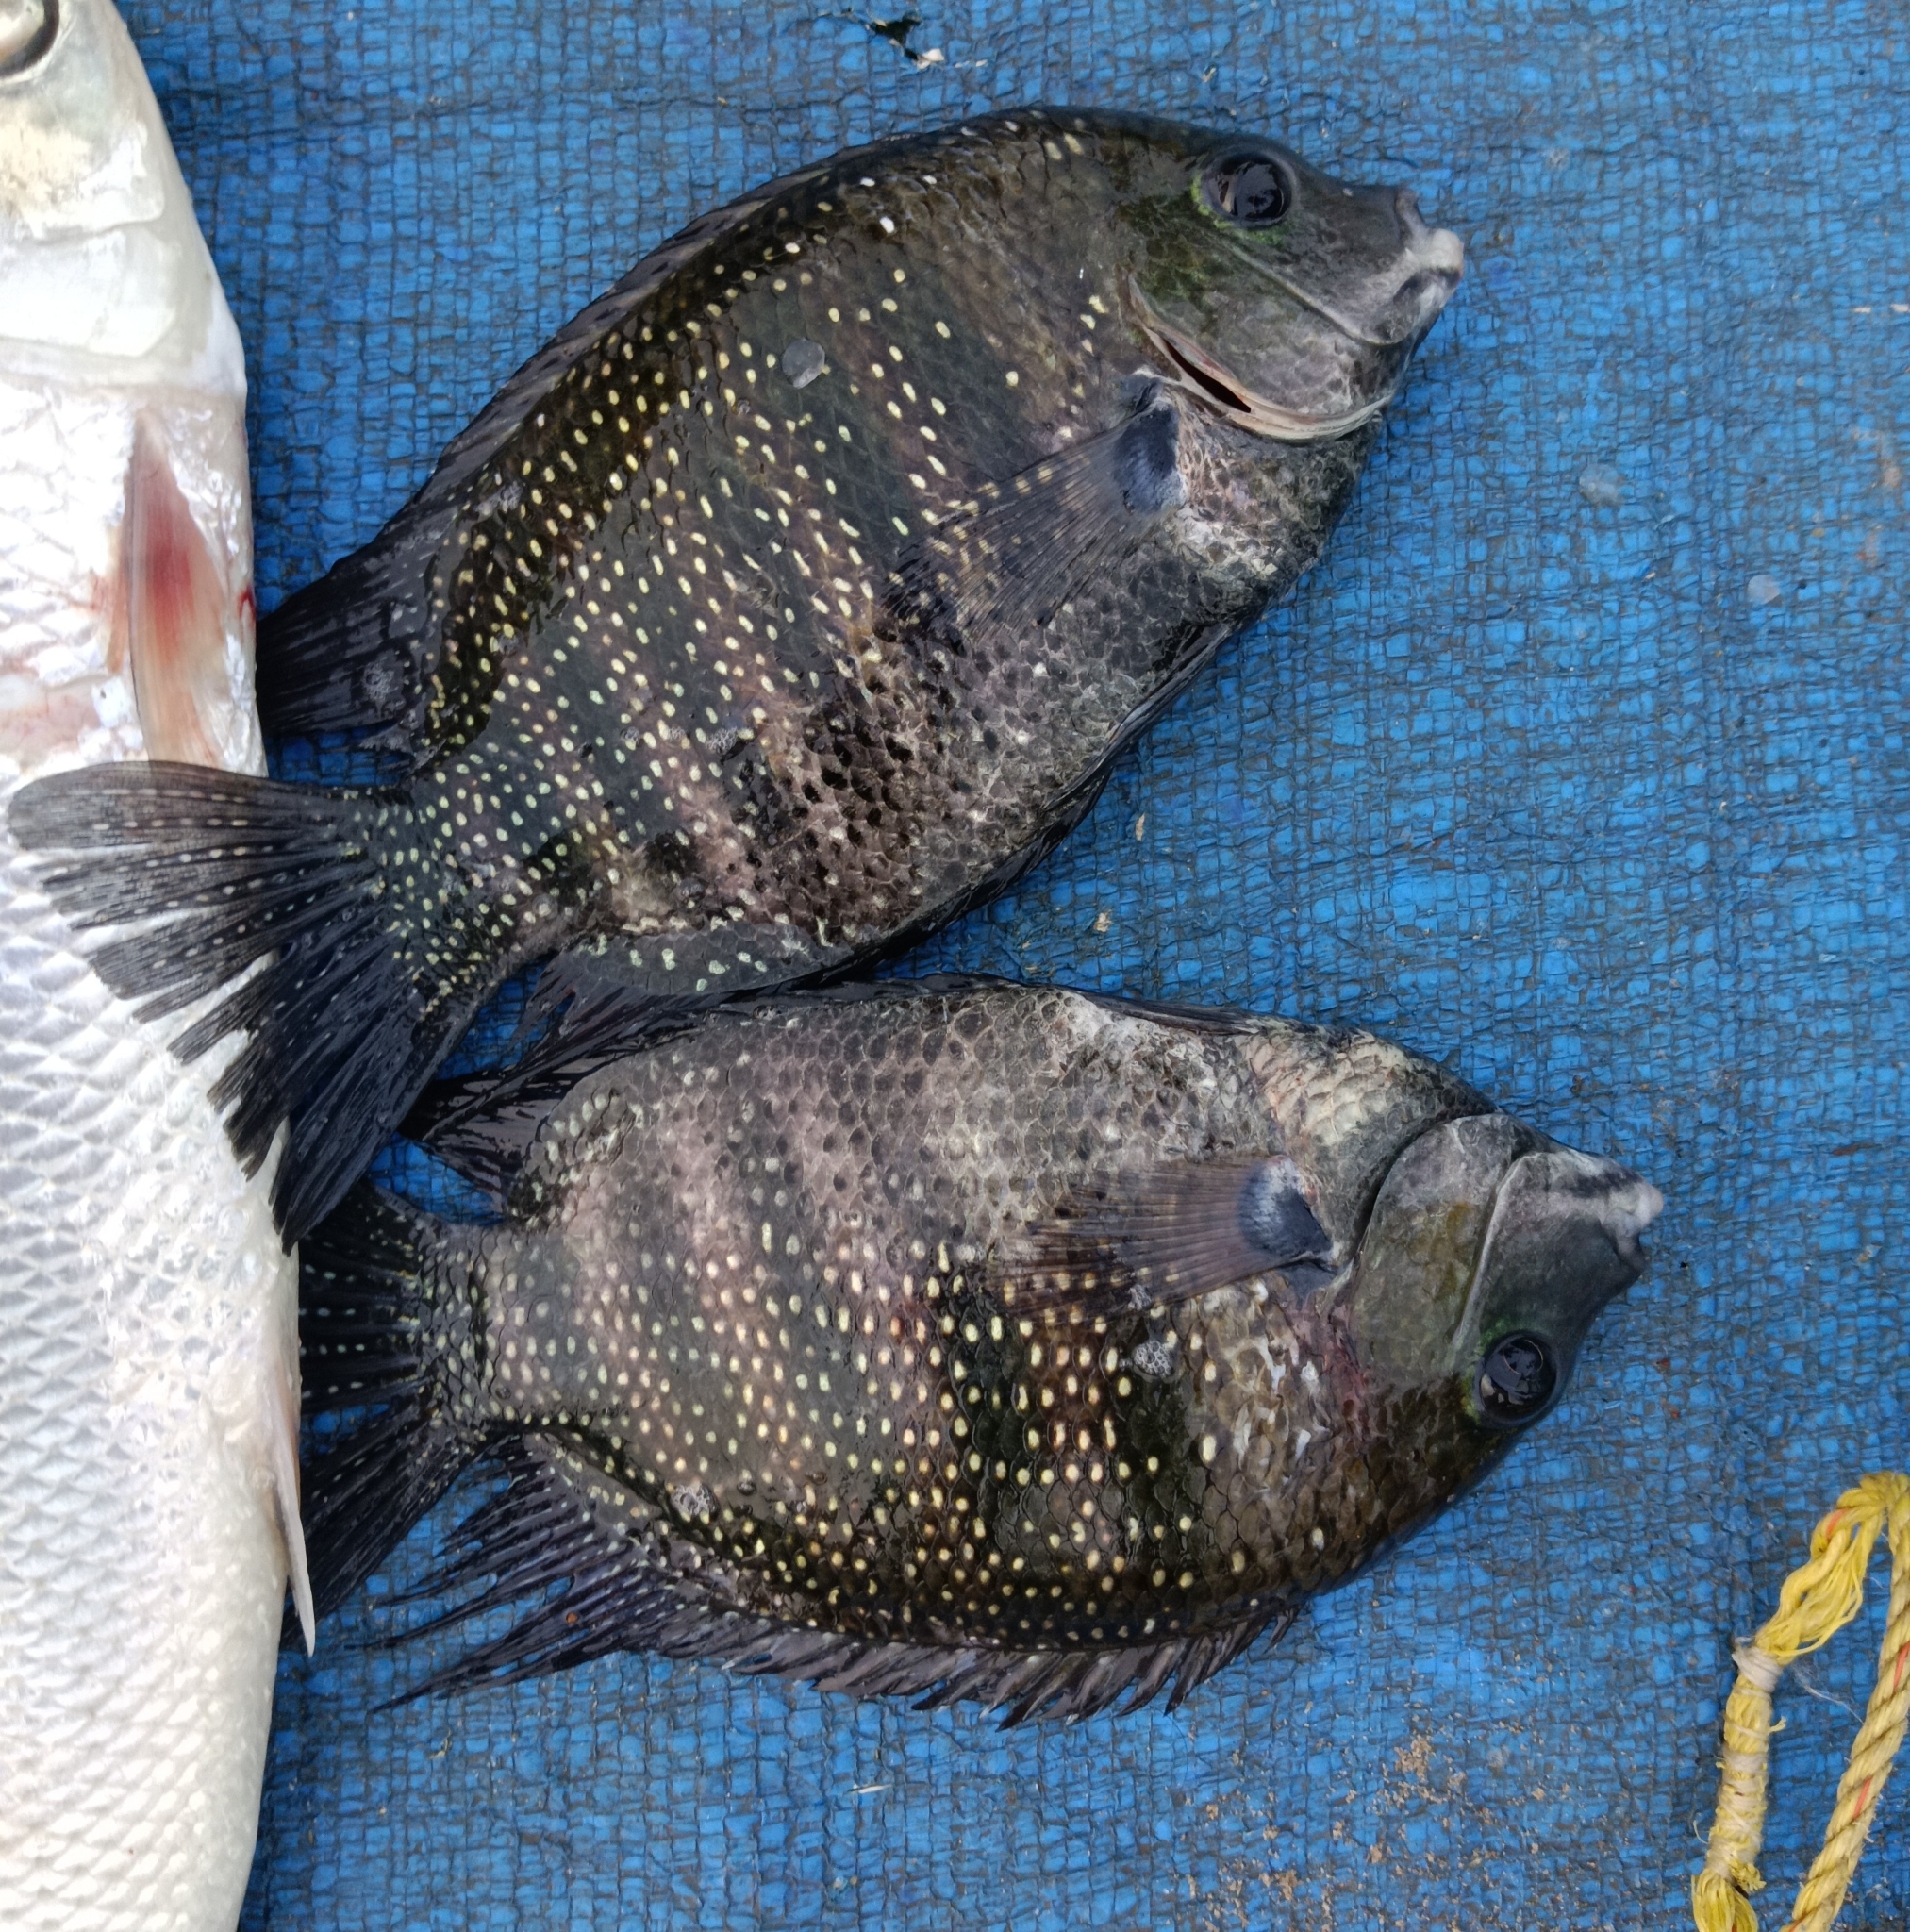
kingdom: Animalia
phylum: Chordata
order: Perciformes
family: Cichlidae
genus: Etroplus
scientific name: Etroplus suratensis
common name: Green chromide
